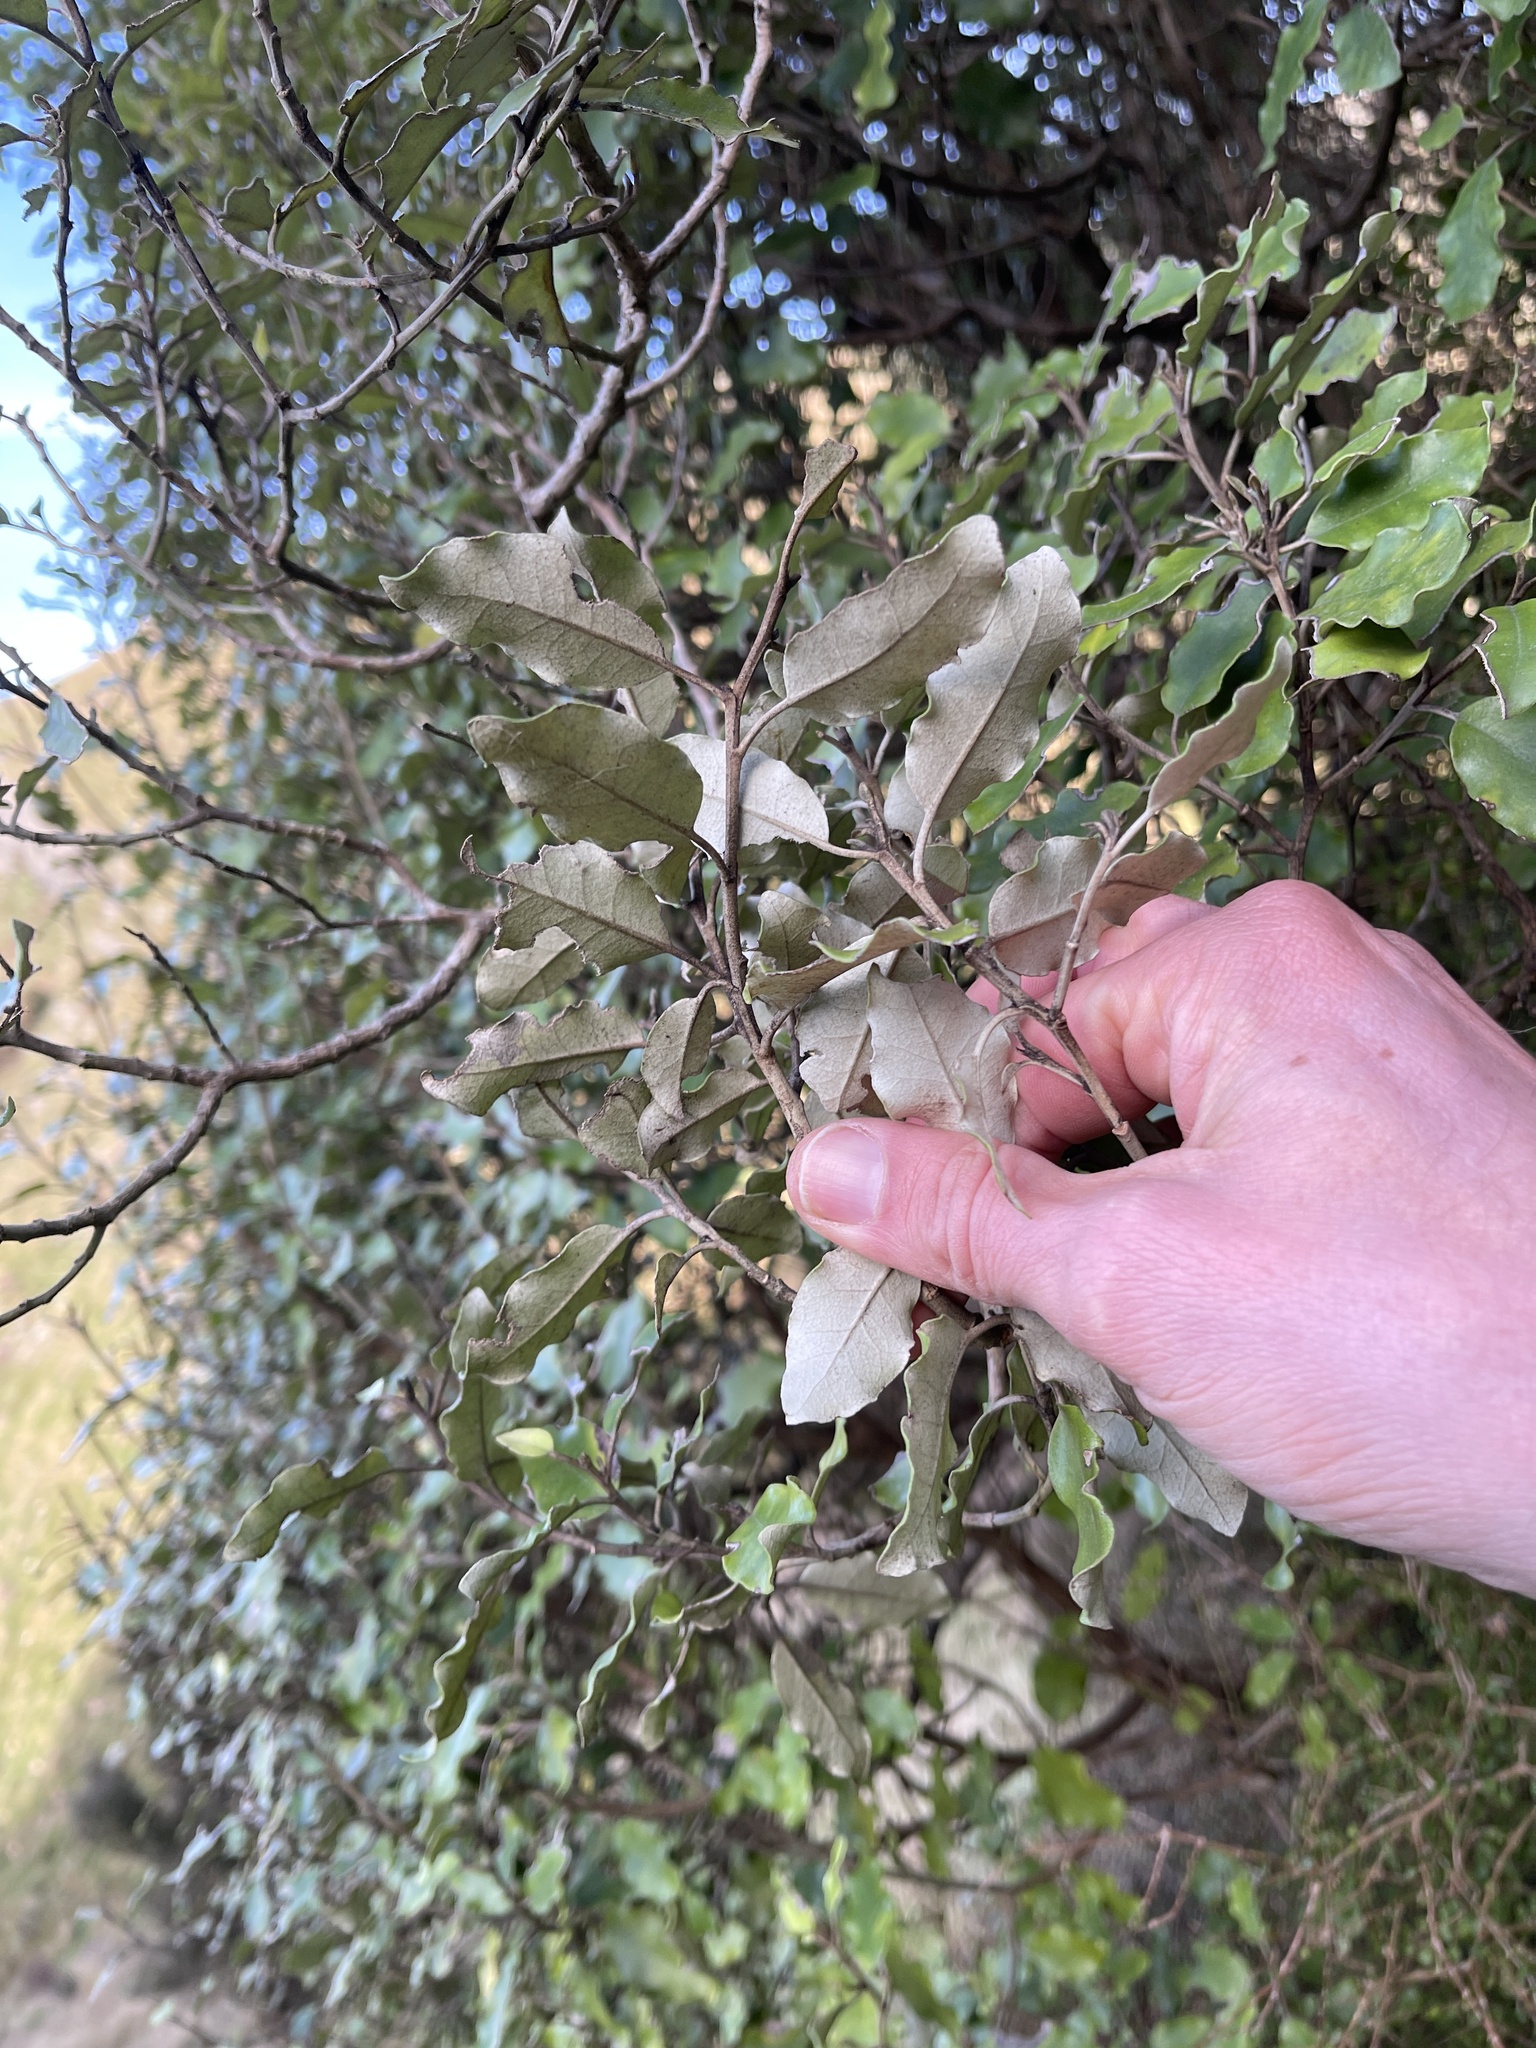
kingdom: Plantae
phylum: Tracheophyta
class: Magnoliopsida
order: Asterales
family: Asteraceae
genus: Olearia
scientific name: Olearia paniculata
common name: Akiraho
